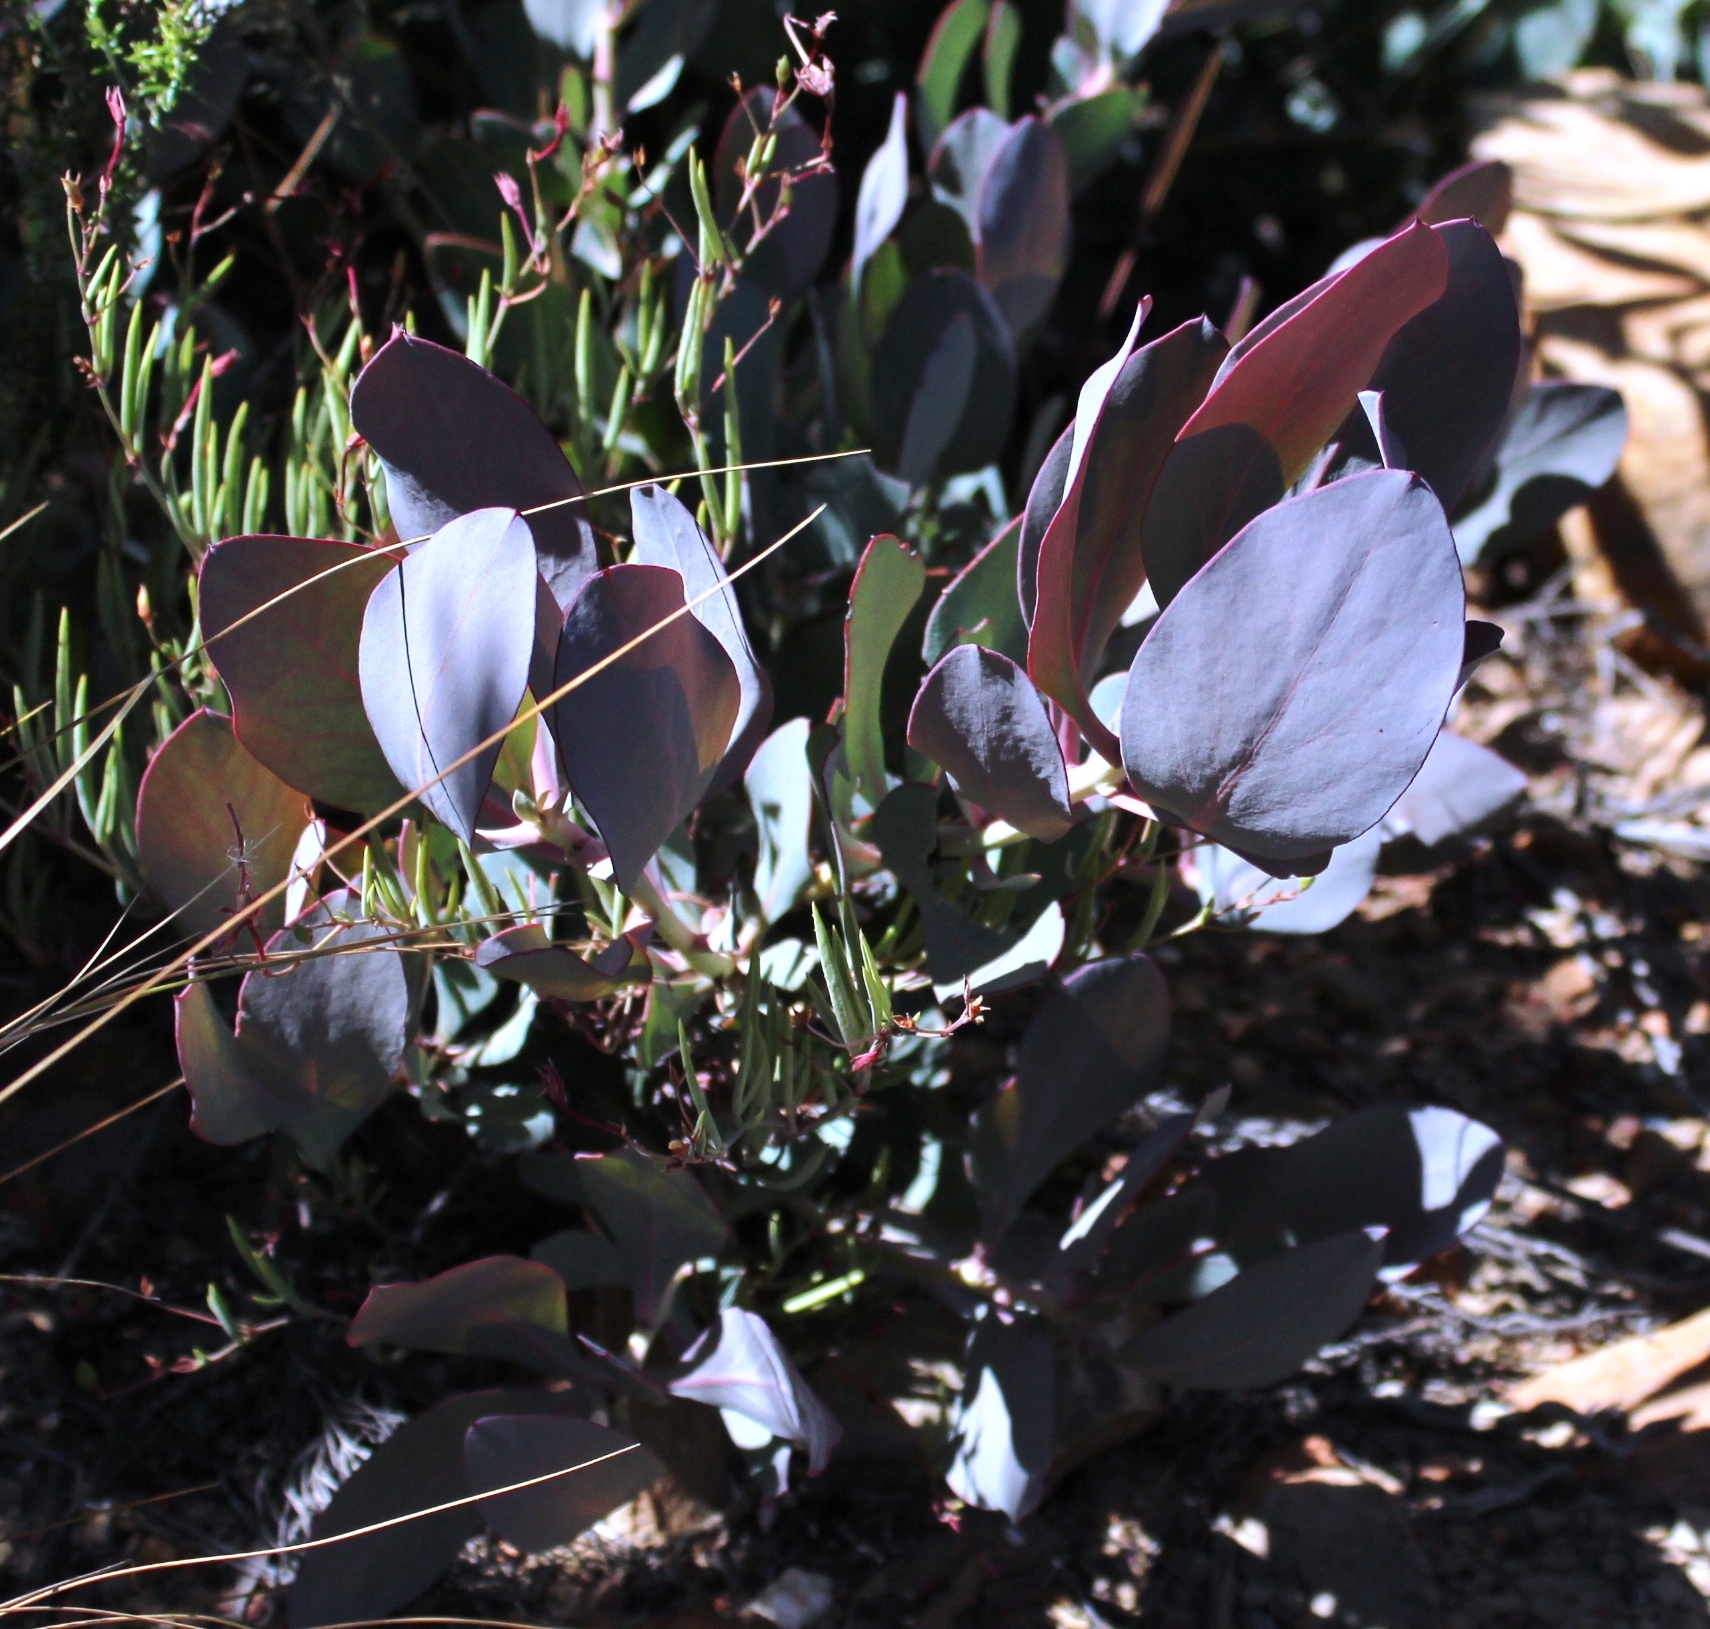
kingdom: Plantae
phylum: Tracheophyta
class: Magnoliopsida
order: Proteales
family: Proteaceae
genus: Protea
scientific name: Protea recondita
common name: Hidden sugarbush
